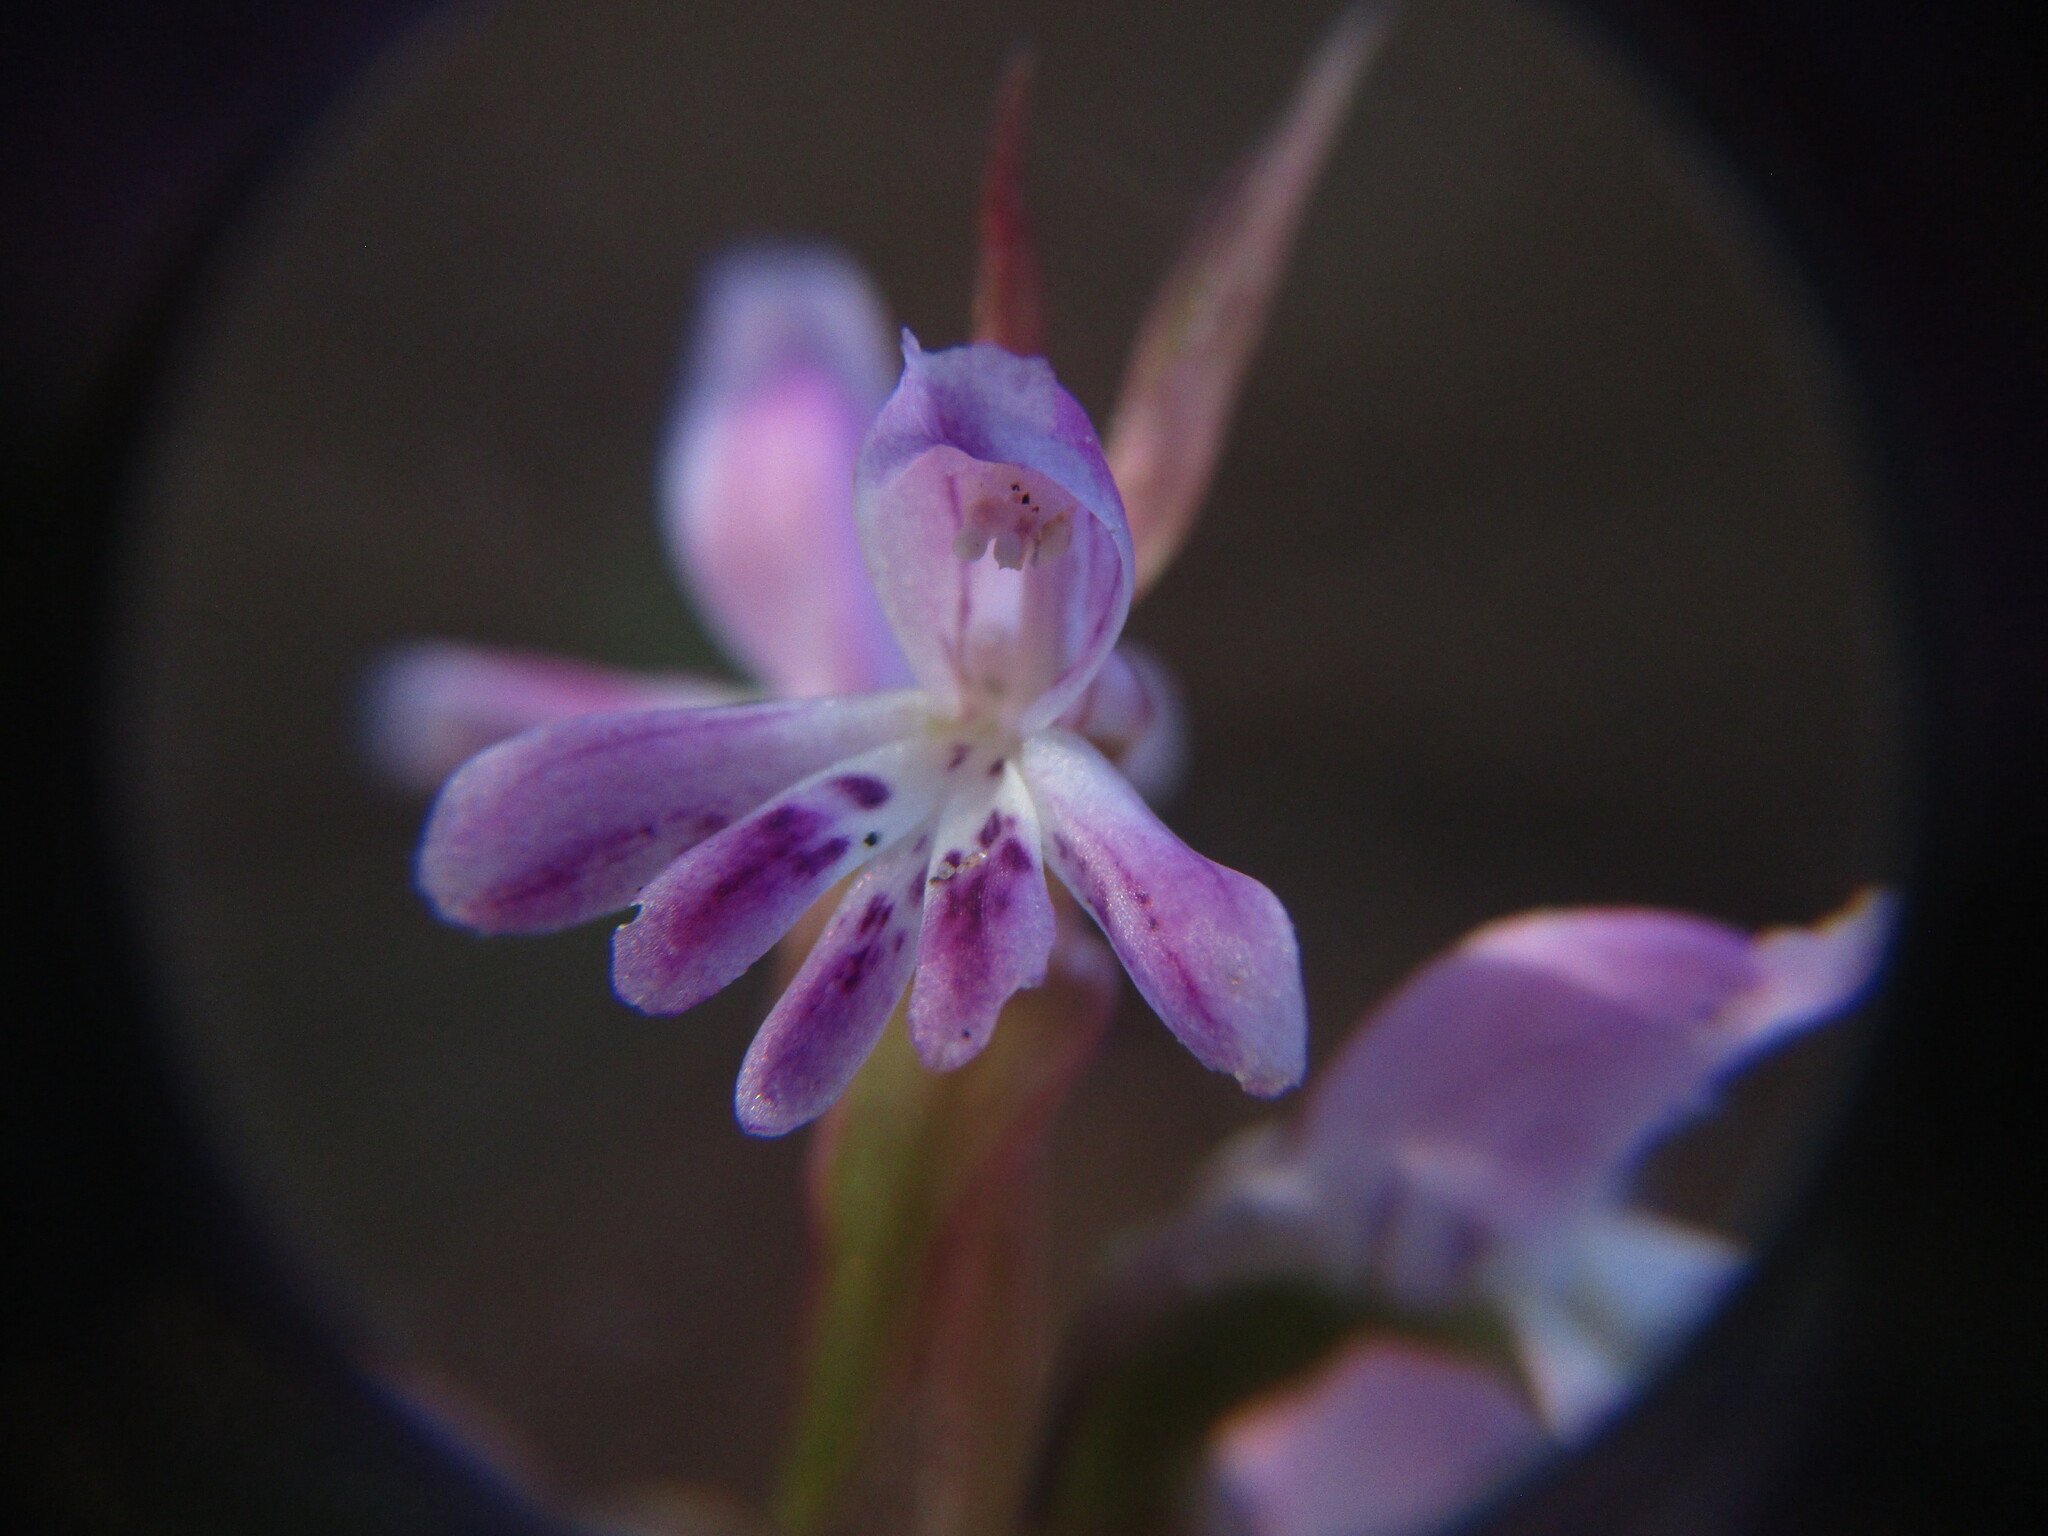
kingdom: Plantae
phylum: Tracheophyta
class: Liliopsida
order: Asparagales
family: Orchidaceae
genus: Satyrium
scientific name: Satyrium erectum
